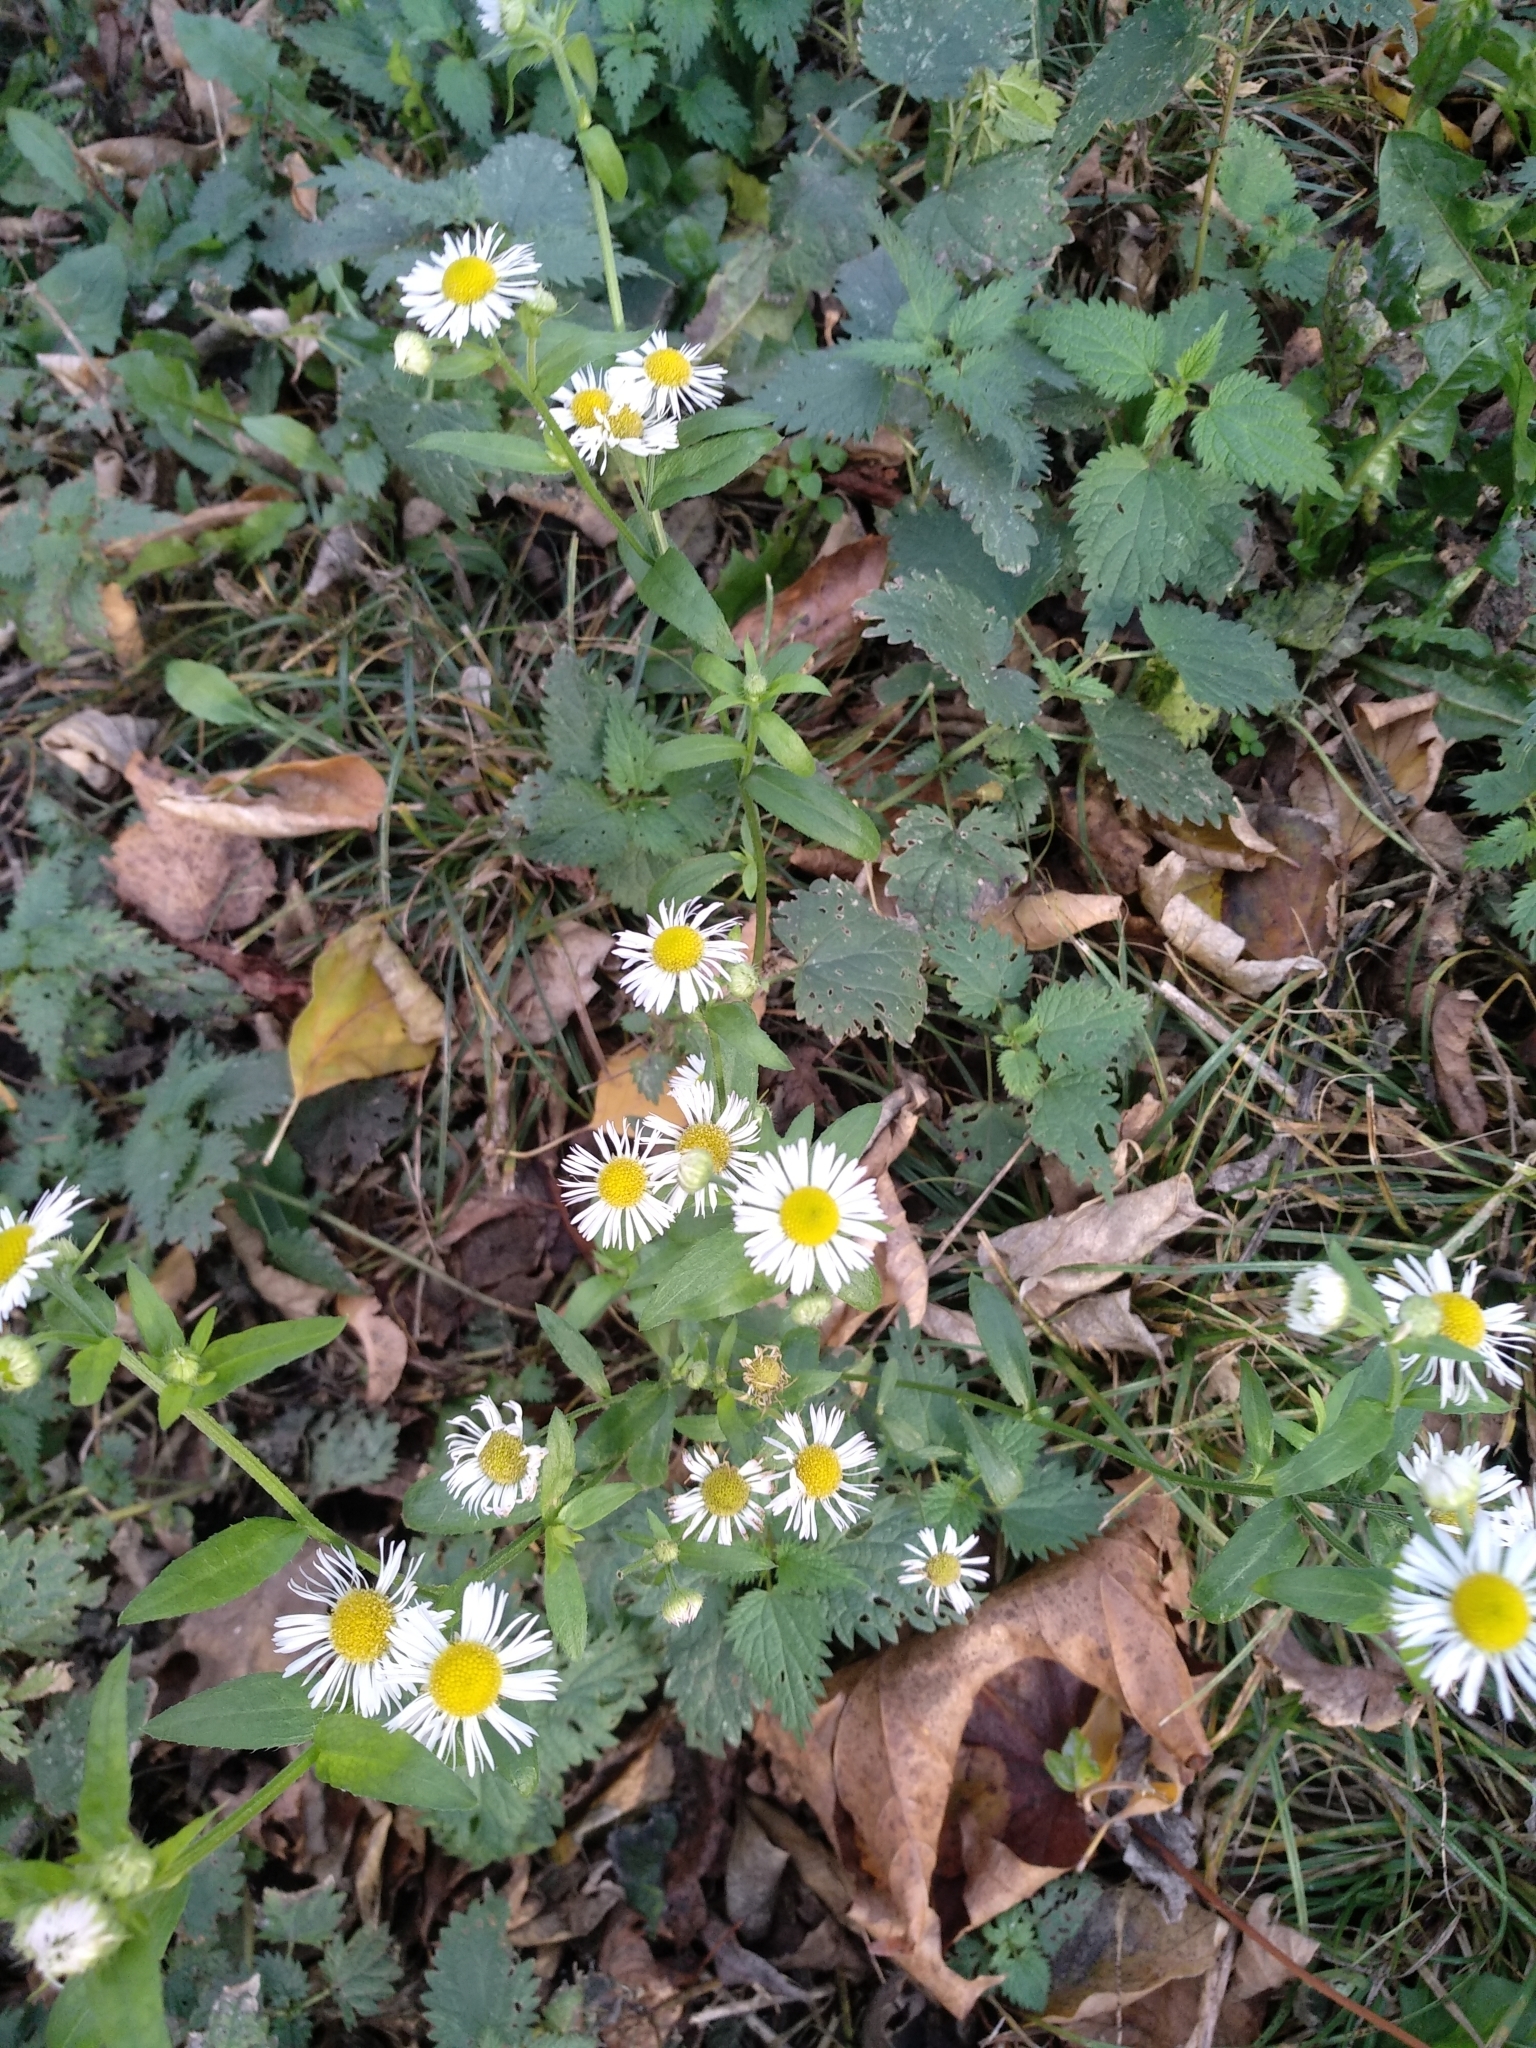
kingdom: Plantae
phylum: Tracheophyta
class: Magnoliopsida
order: Asterales
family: Asteraceae
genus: Erigeron
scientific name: Erigeron annuus
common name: Tall fleabane
